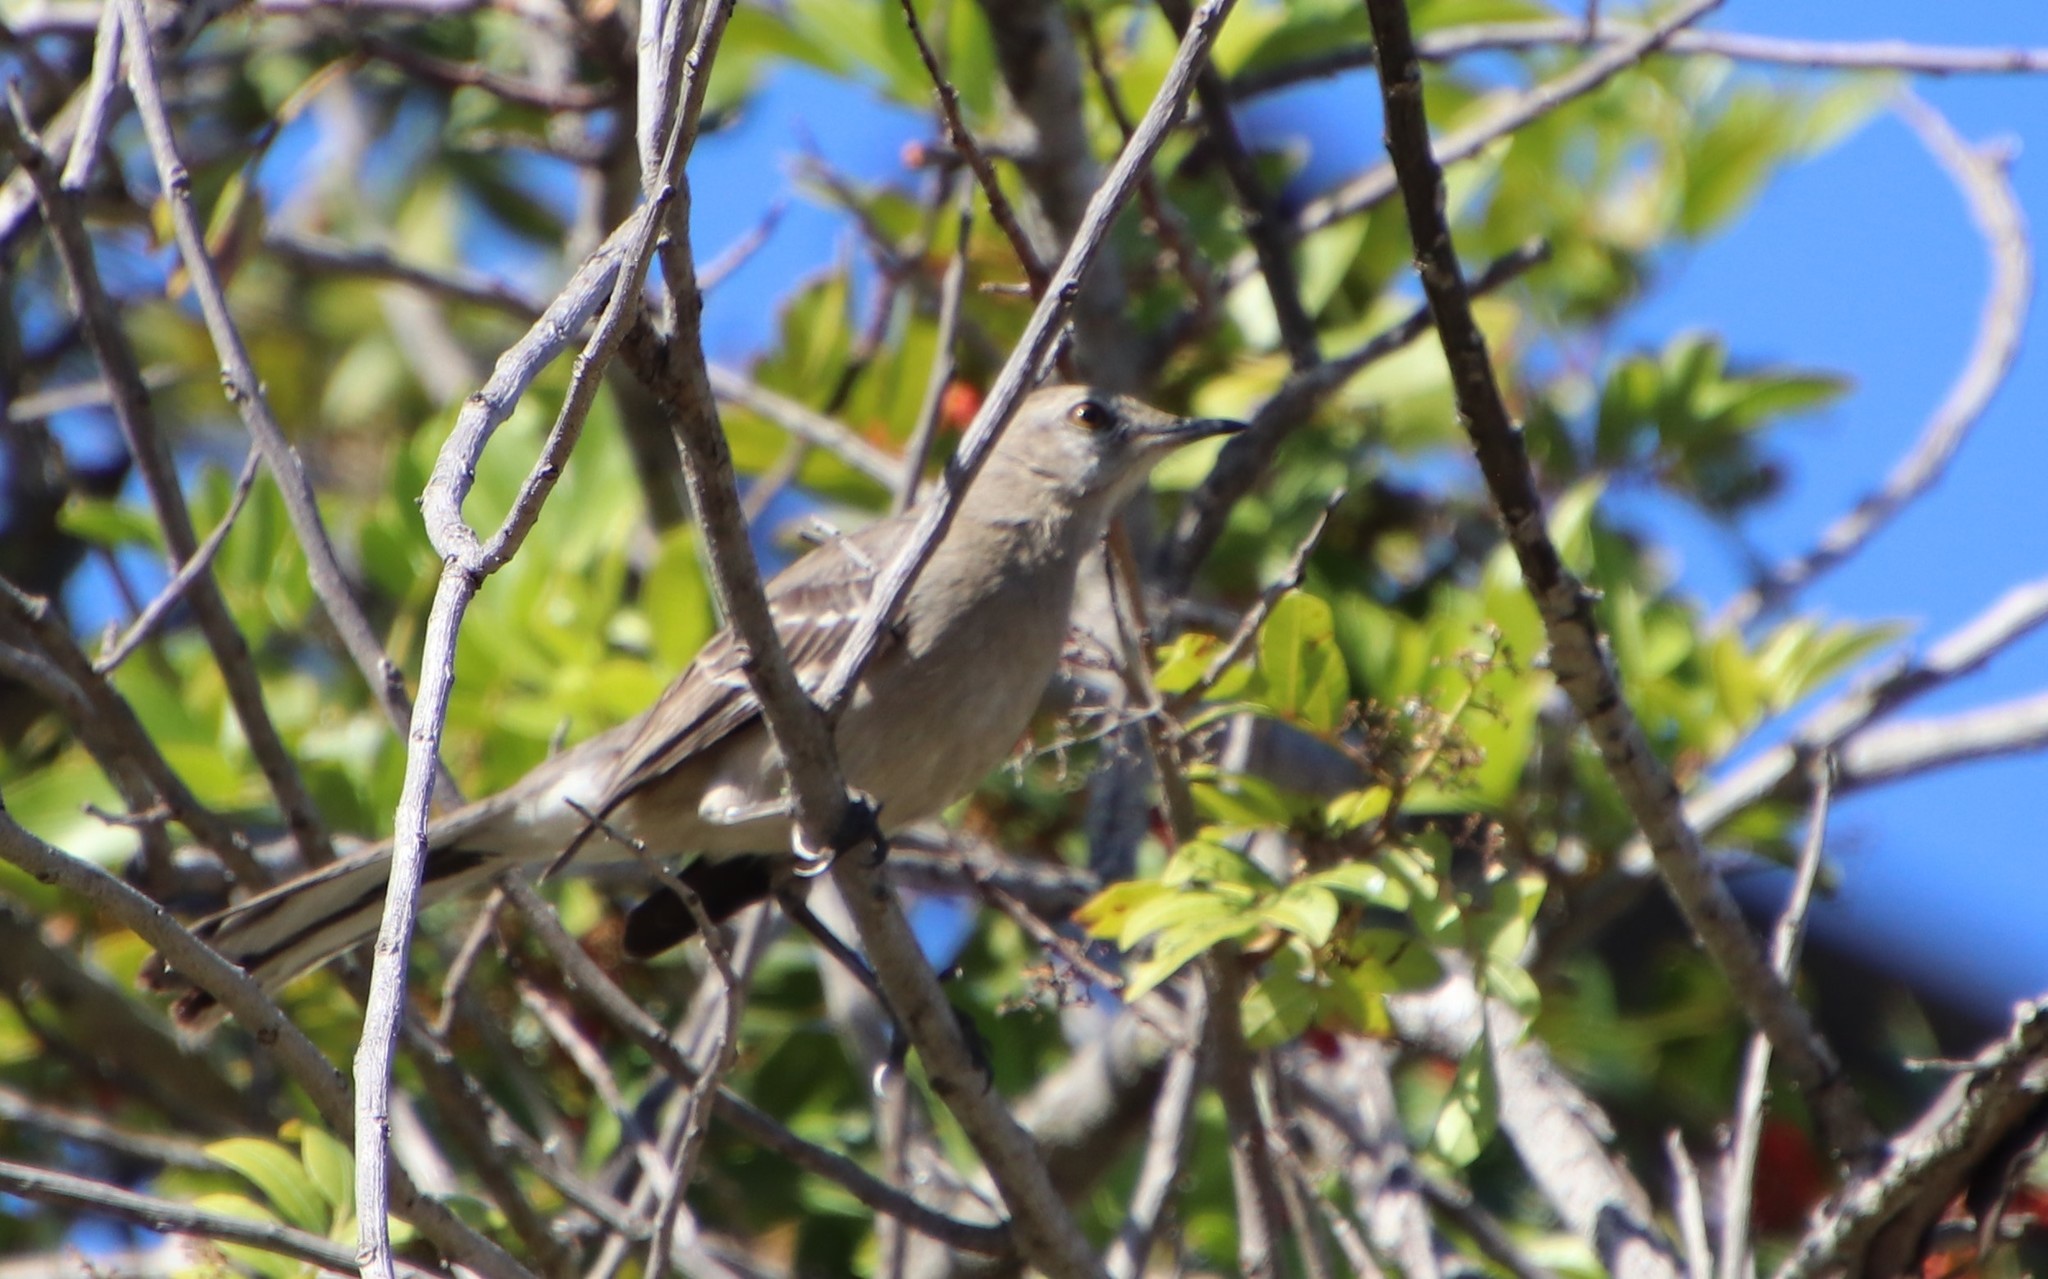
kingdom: Animalia
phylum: Chordata
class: Aves
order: Passeriformes
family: Mimidae
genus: Mimus
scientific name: Mimus polyglottos
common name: Northern mockingbird
